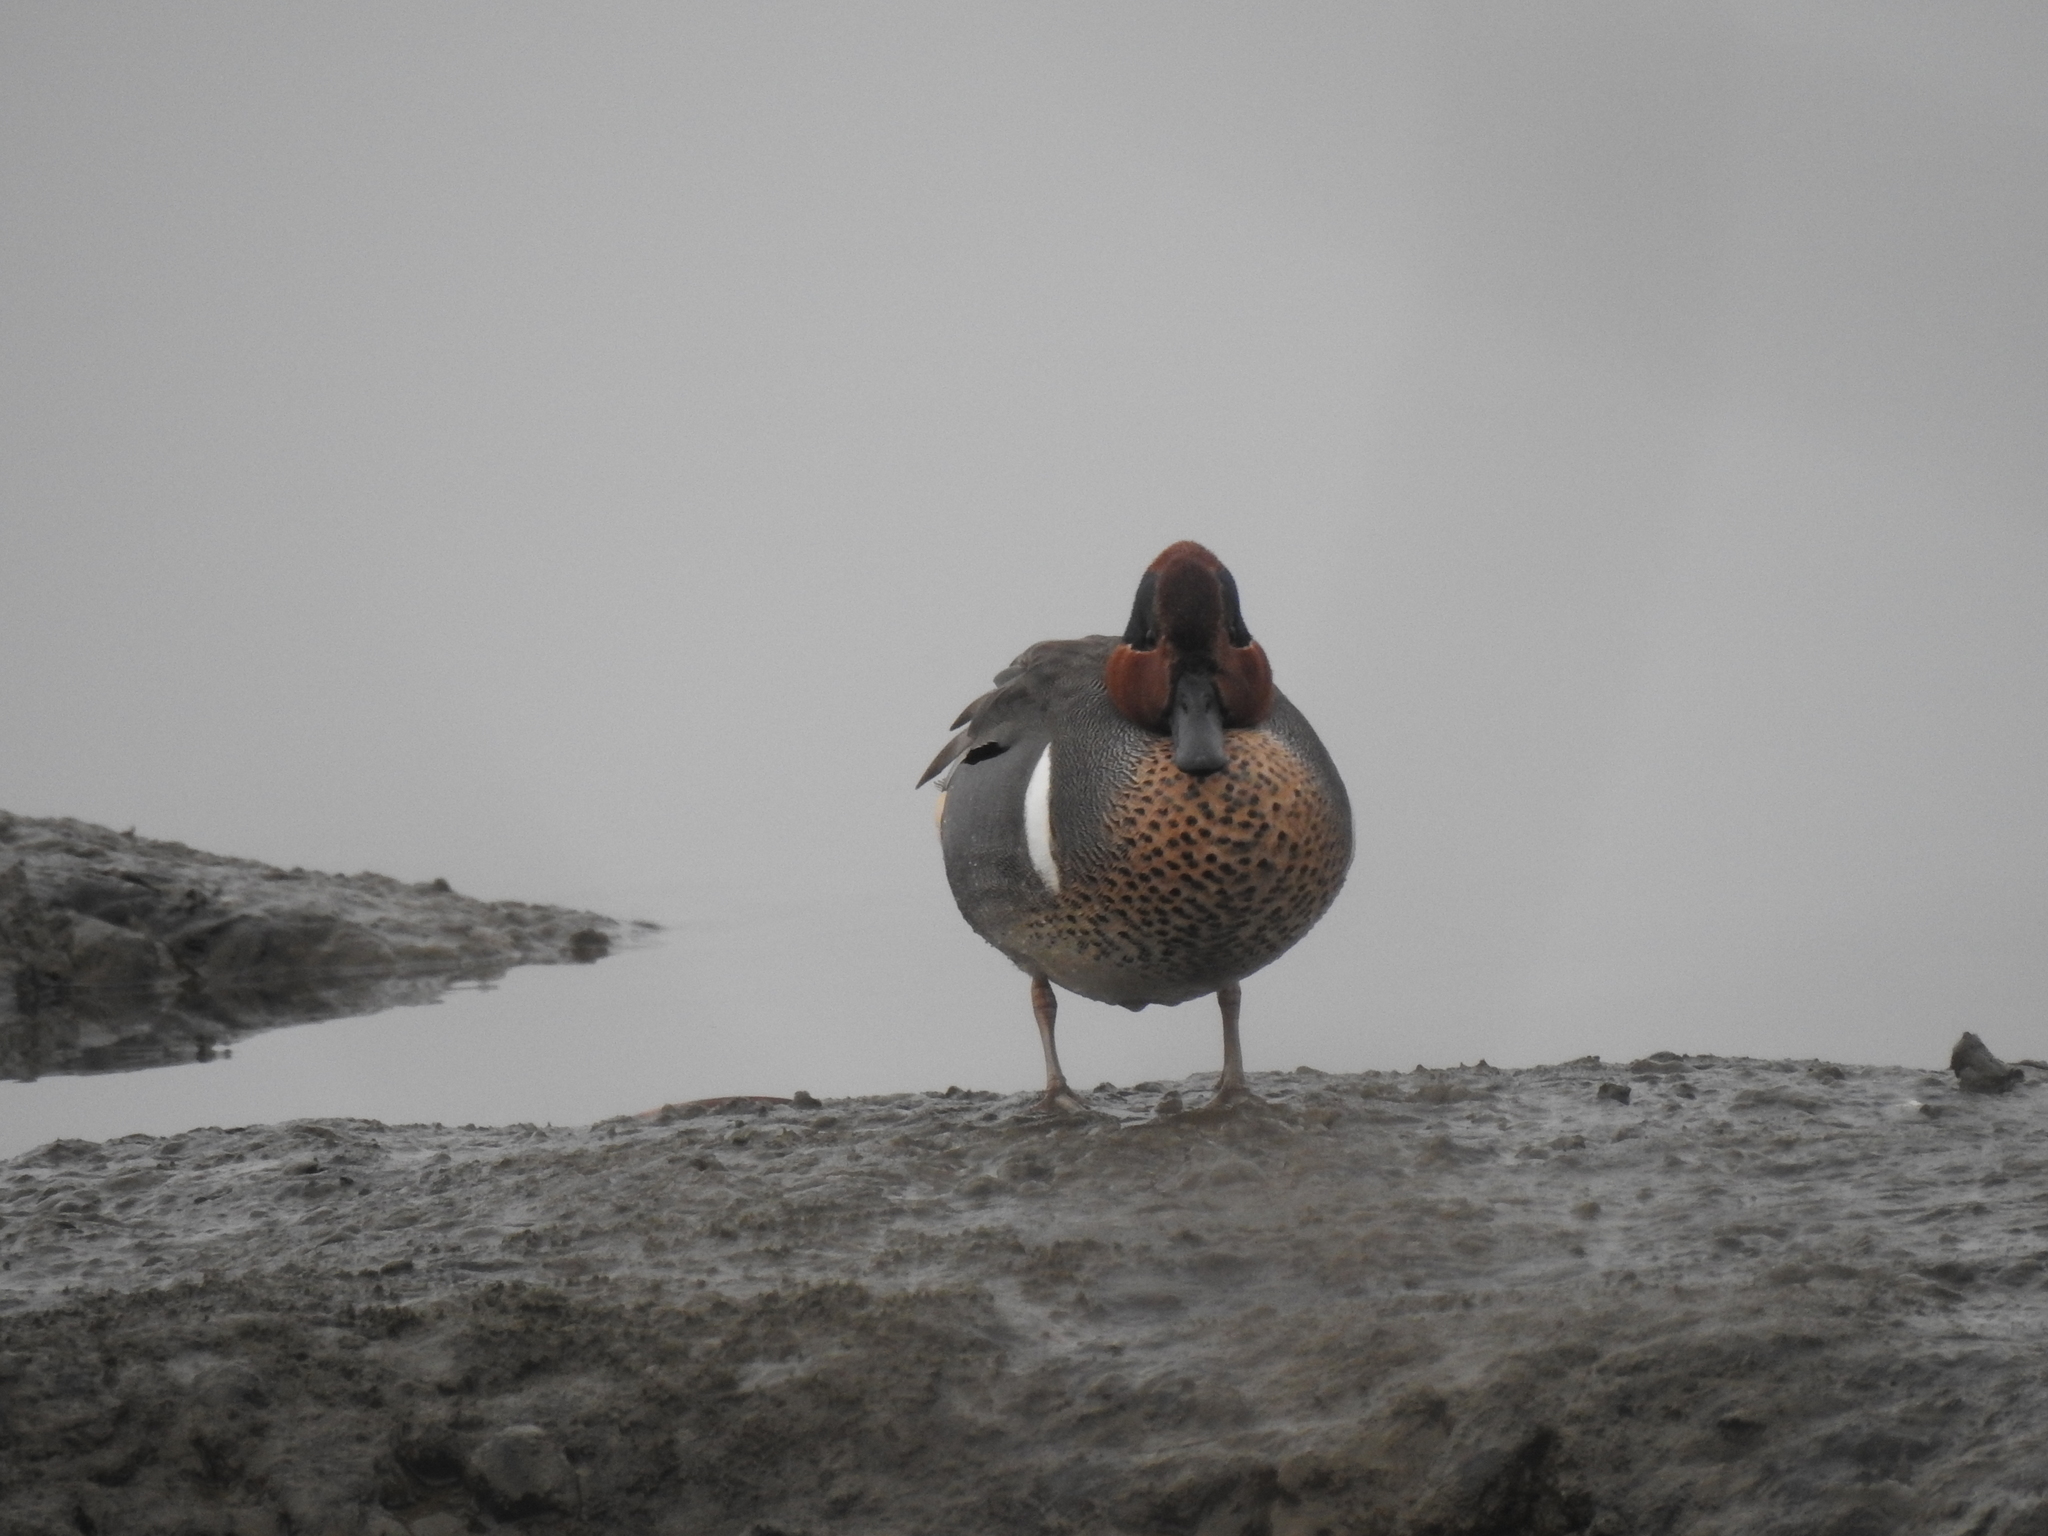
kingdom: Animalia
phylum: Chordata
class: Aves
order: Anseriformes
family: Anatidae
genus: Anas
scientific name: Anas crecca
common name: Eurasian teal
